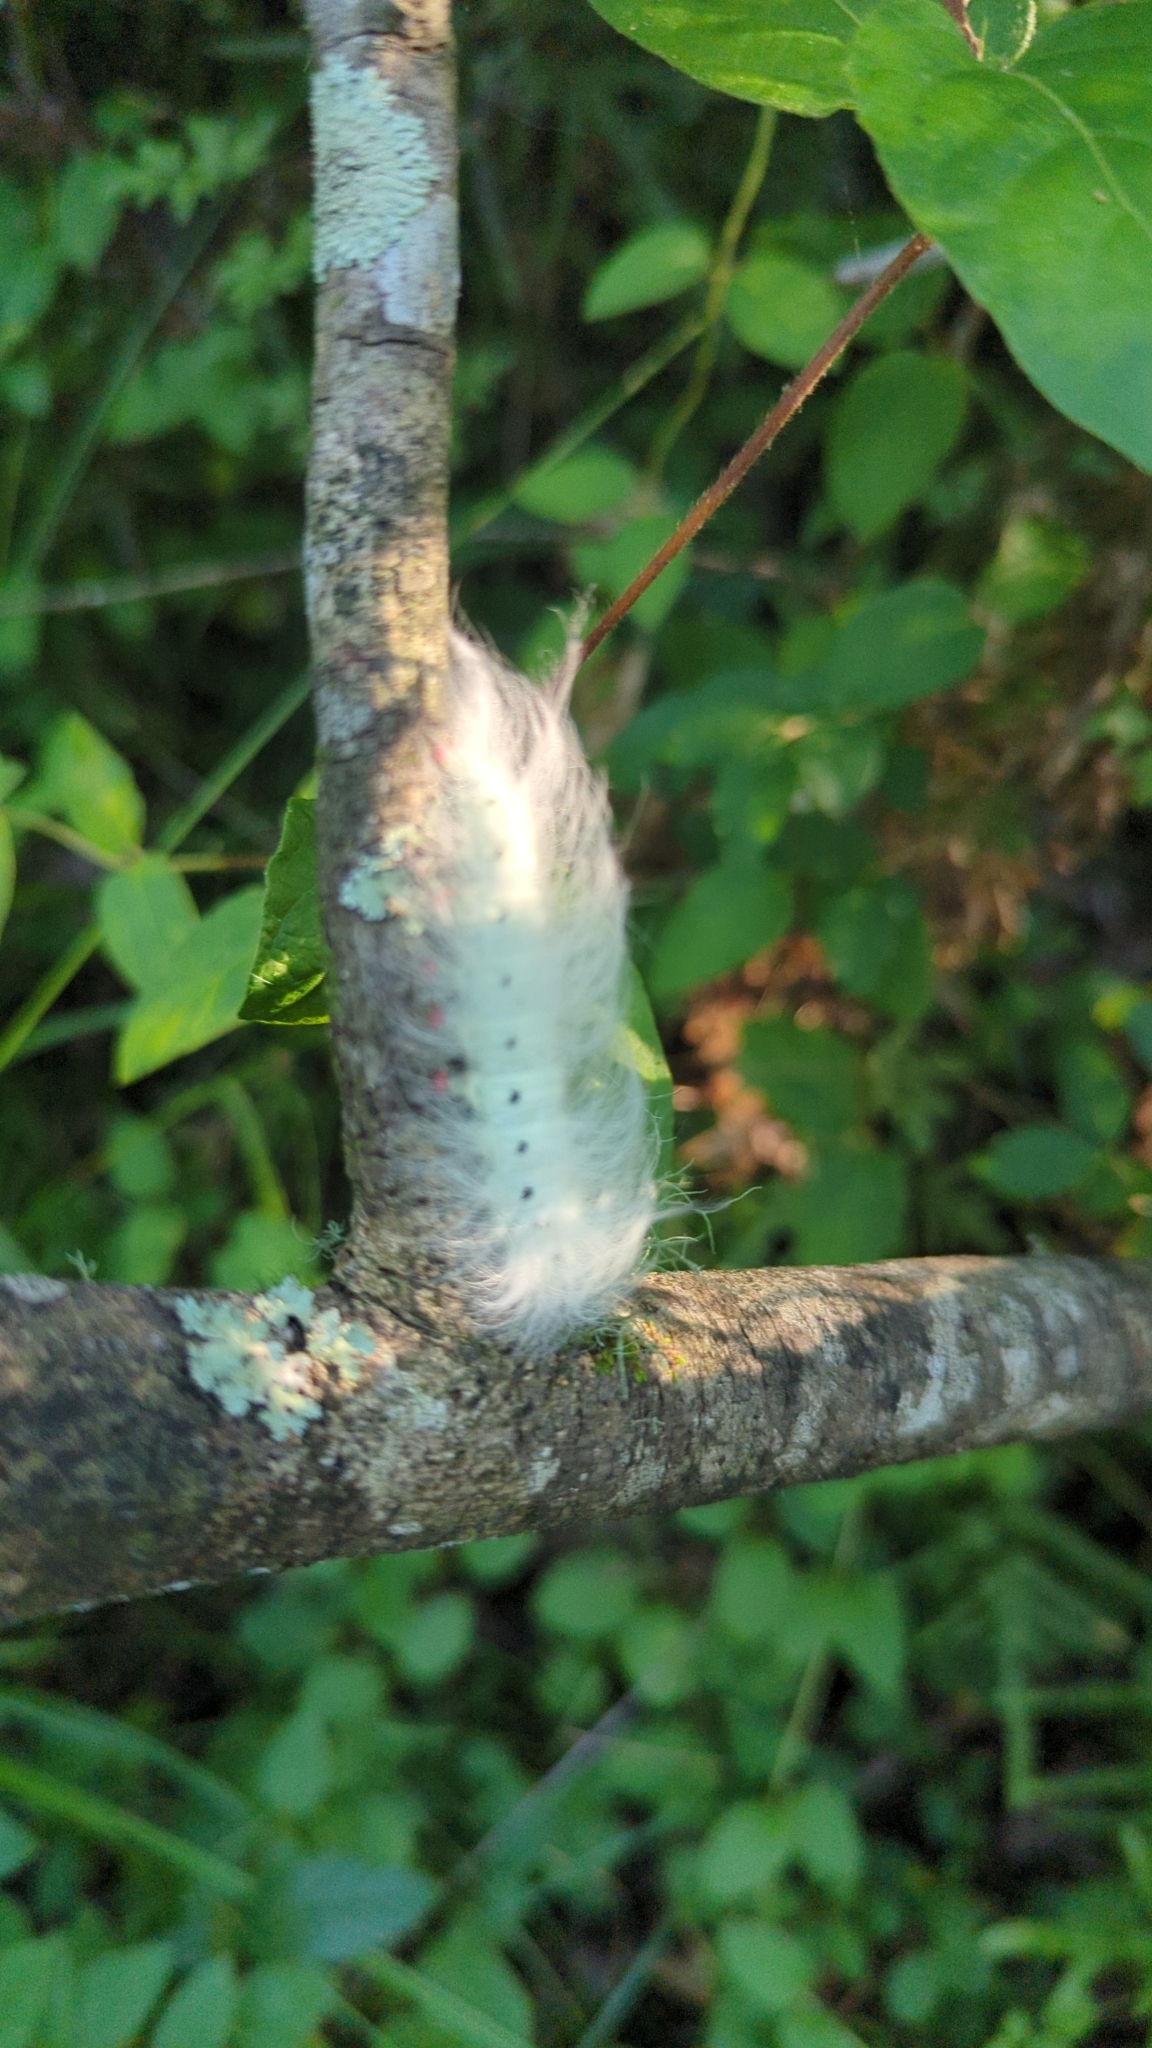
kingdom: Animalia
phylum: Arthropoda
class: Insecta
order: Lepidoptera
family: Apatelodidae
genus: Hygrochroa
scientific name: Hygrochroa Apatelodes torrefacta
